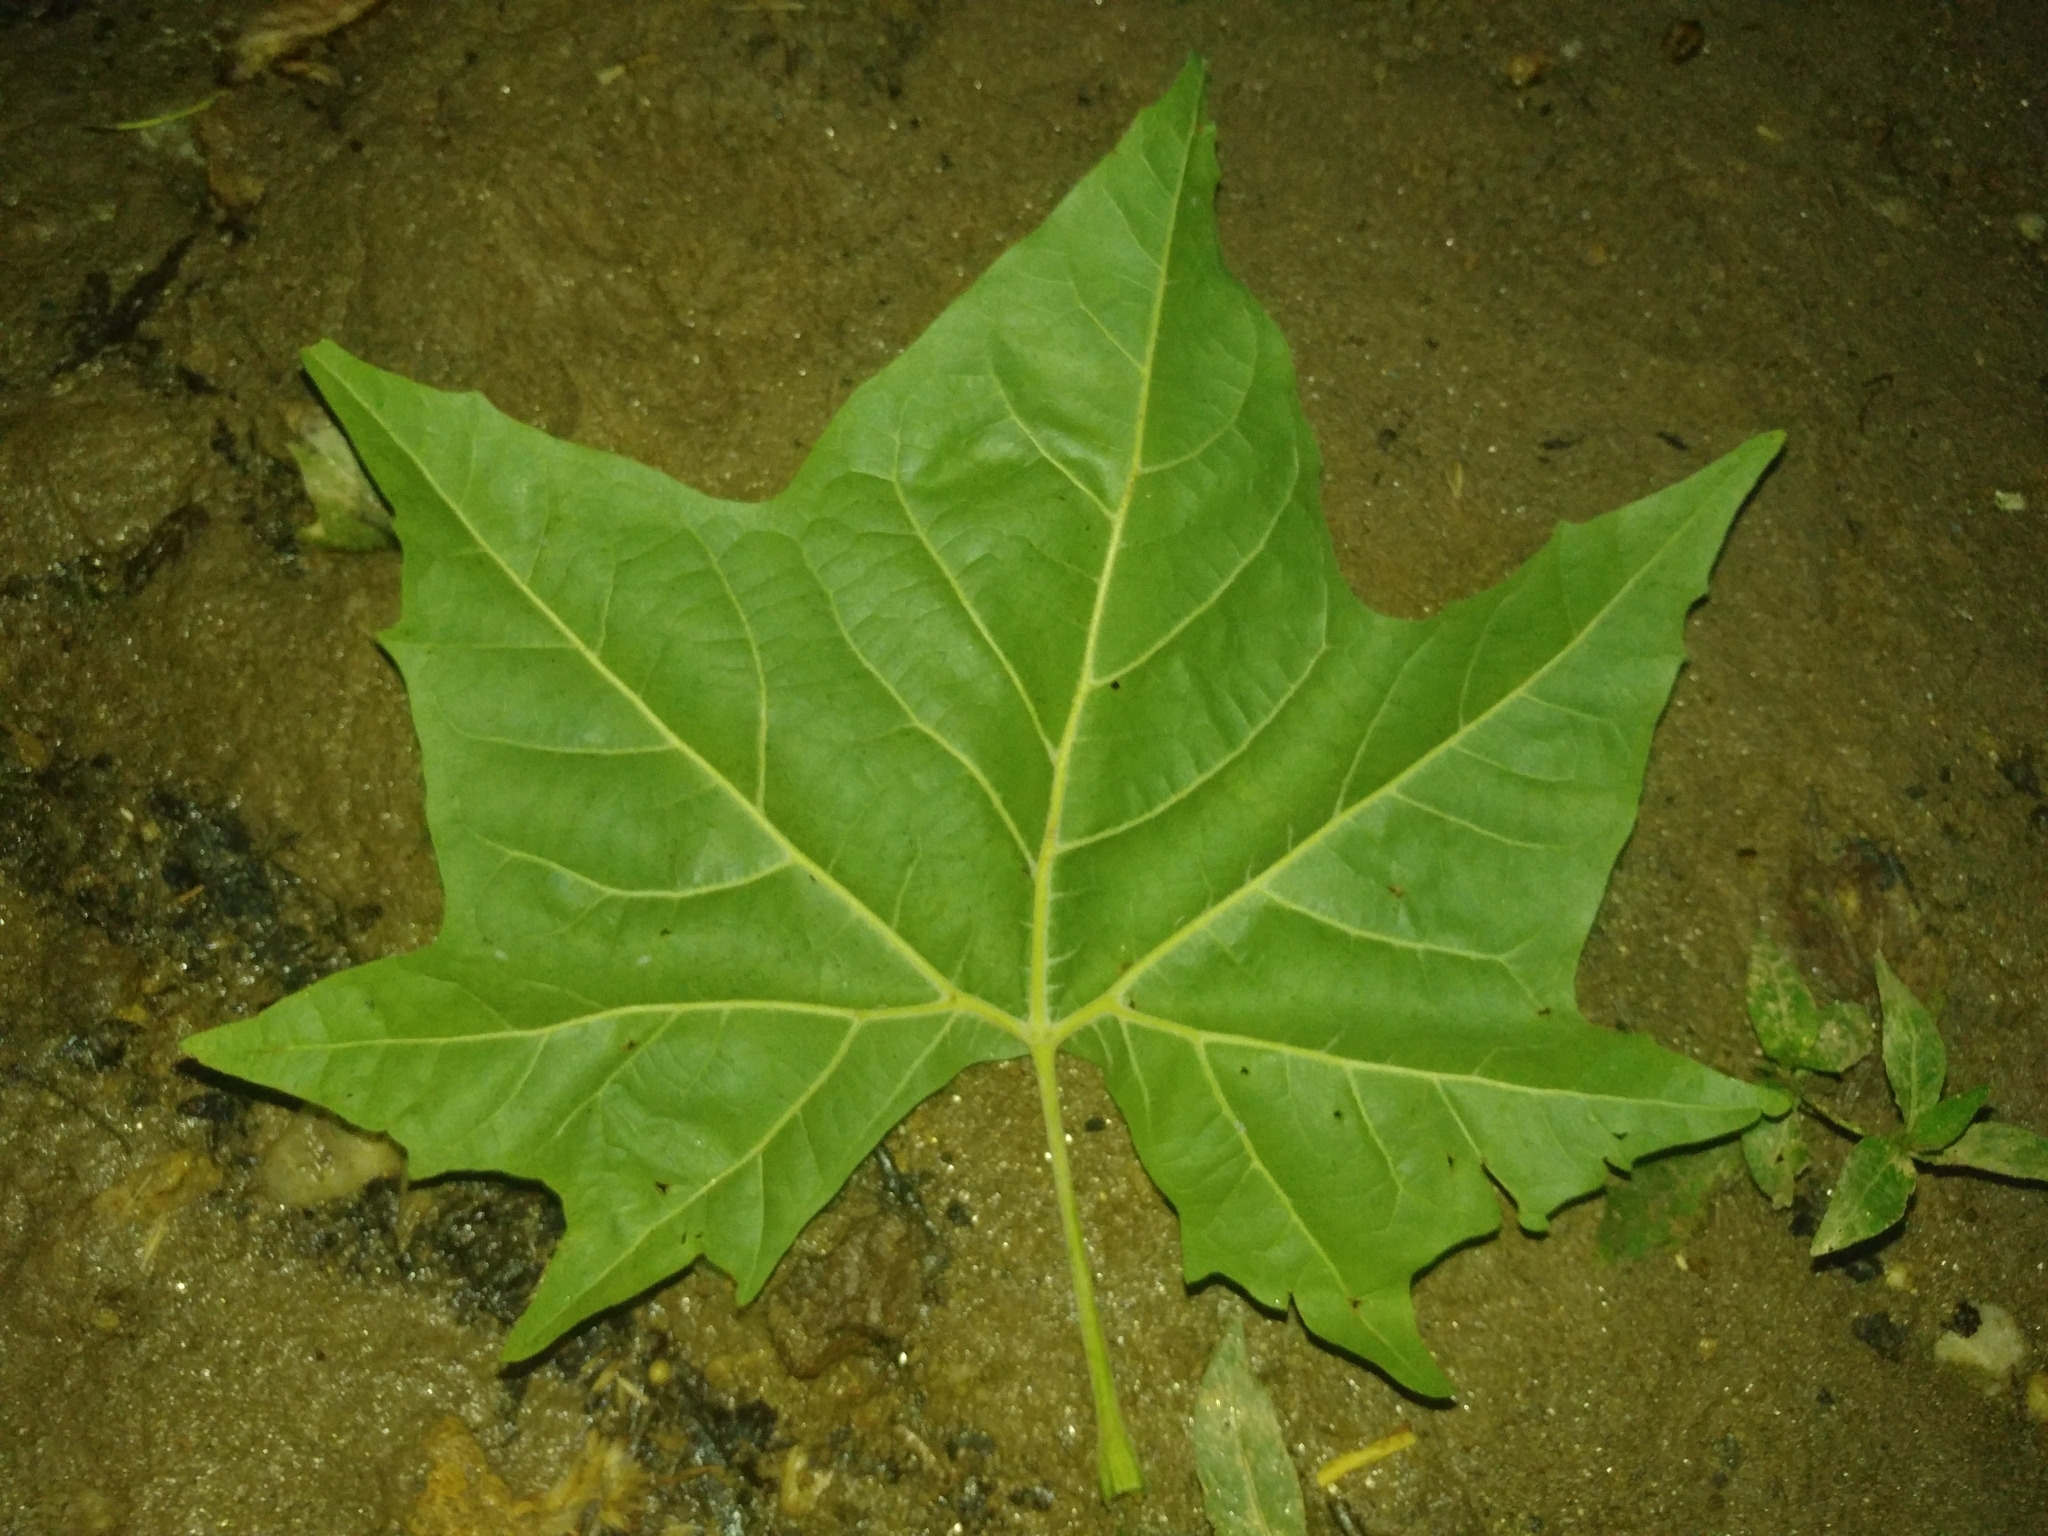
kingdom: Plantae
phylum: Tracheophyta
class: Magnoliopsida
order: Proteales
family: Platanaceae
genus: Platanus
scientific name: Platanus occidentalis
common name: American sycamore
